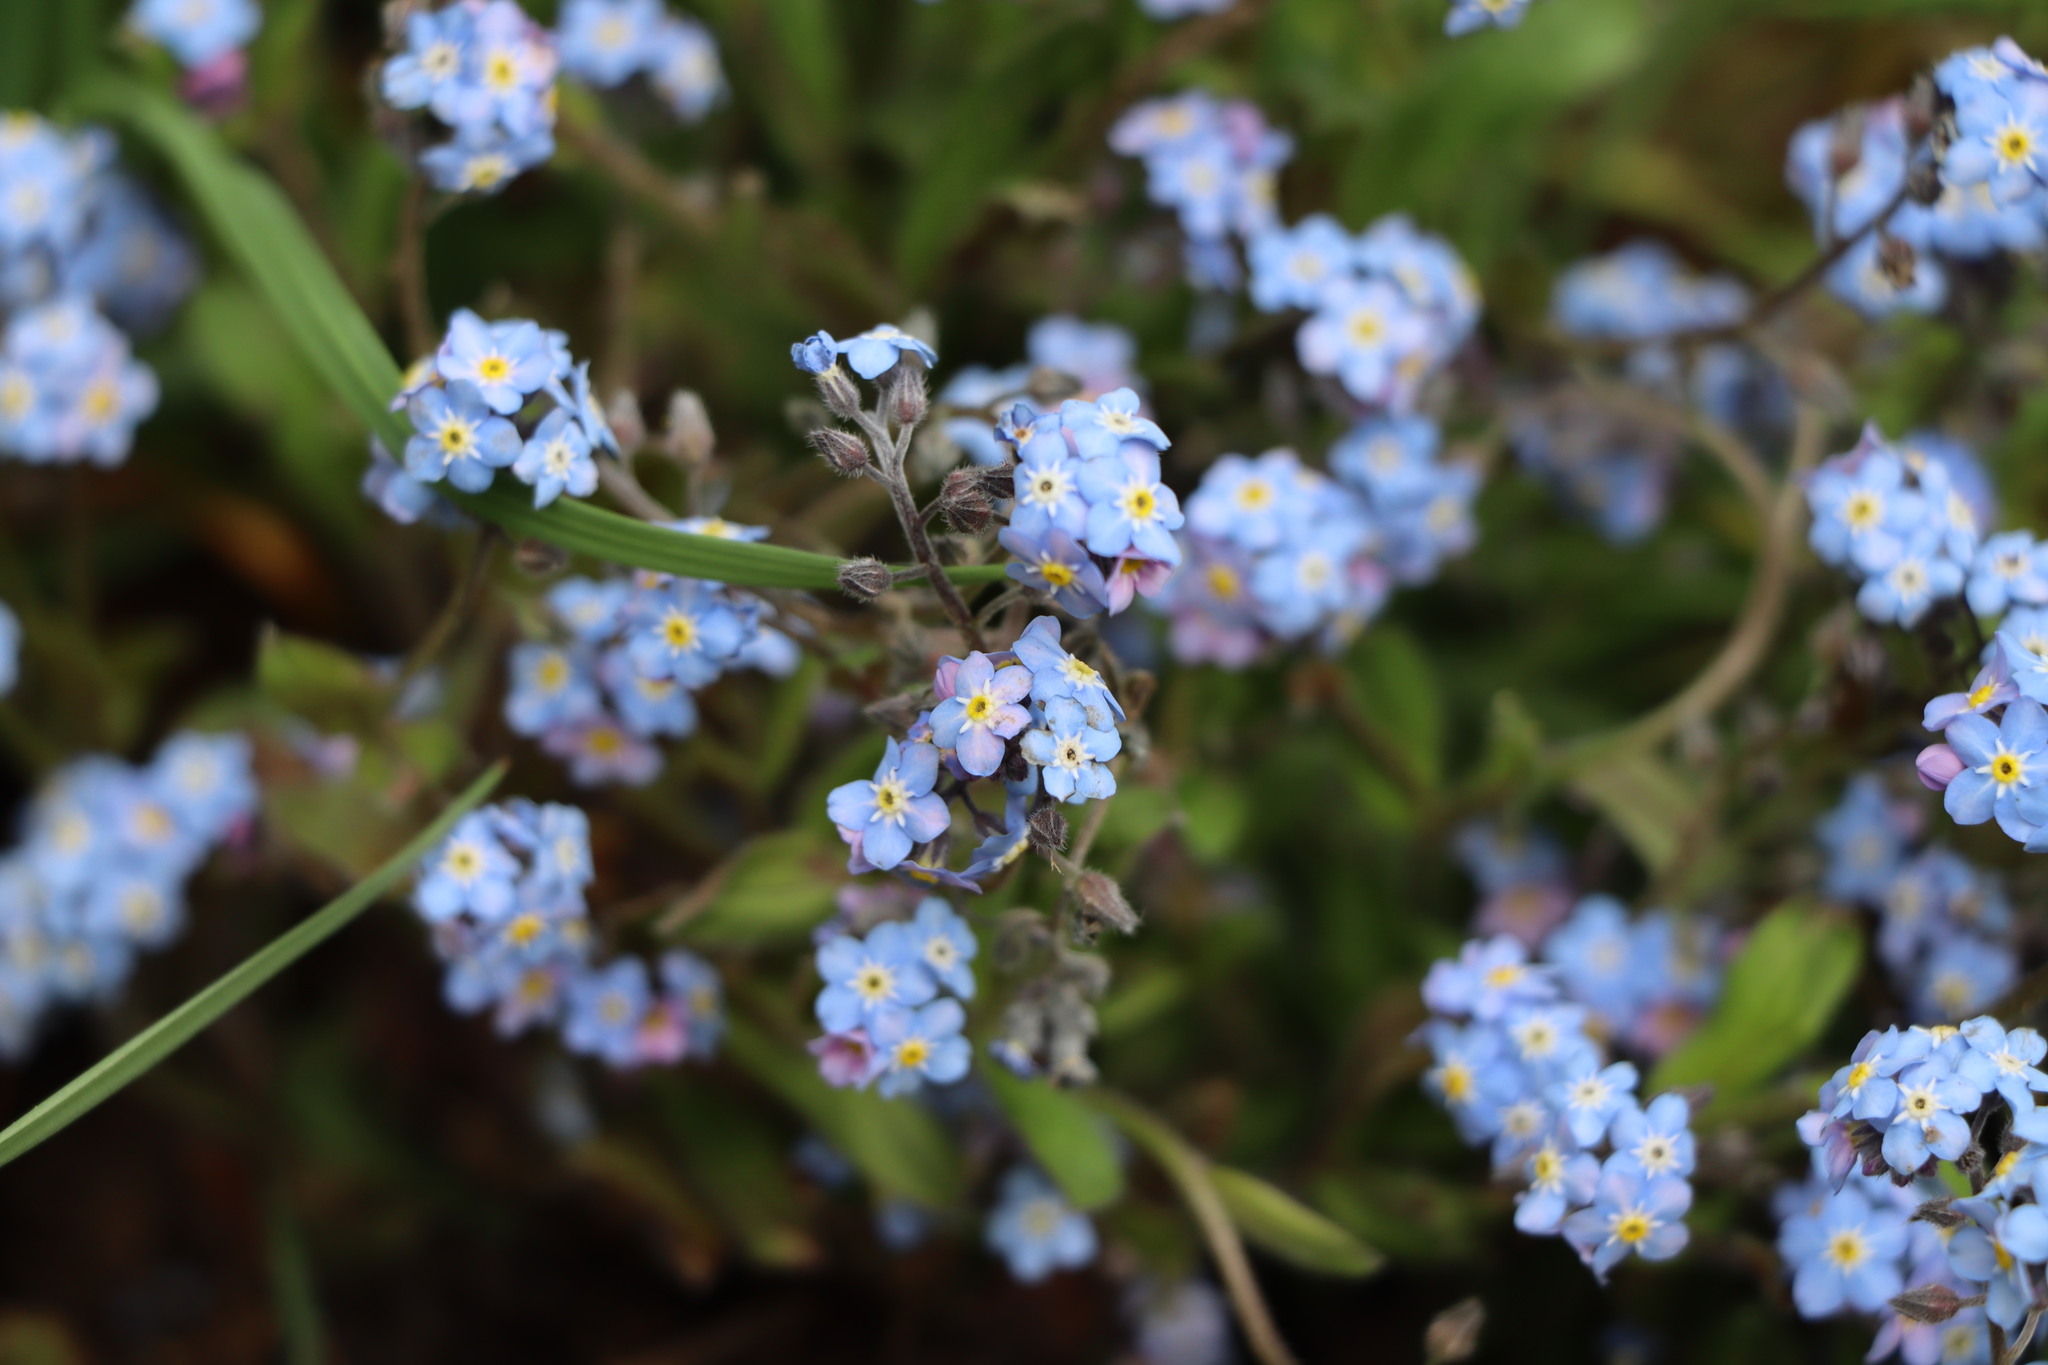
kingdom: Plantae
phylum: Tracheophyta
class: Magnoliopsida
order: Boraginales
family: Boraginaceae
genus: Myosotis
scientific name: Myosotis sylvatica
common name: Wood forget-me-not
